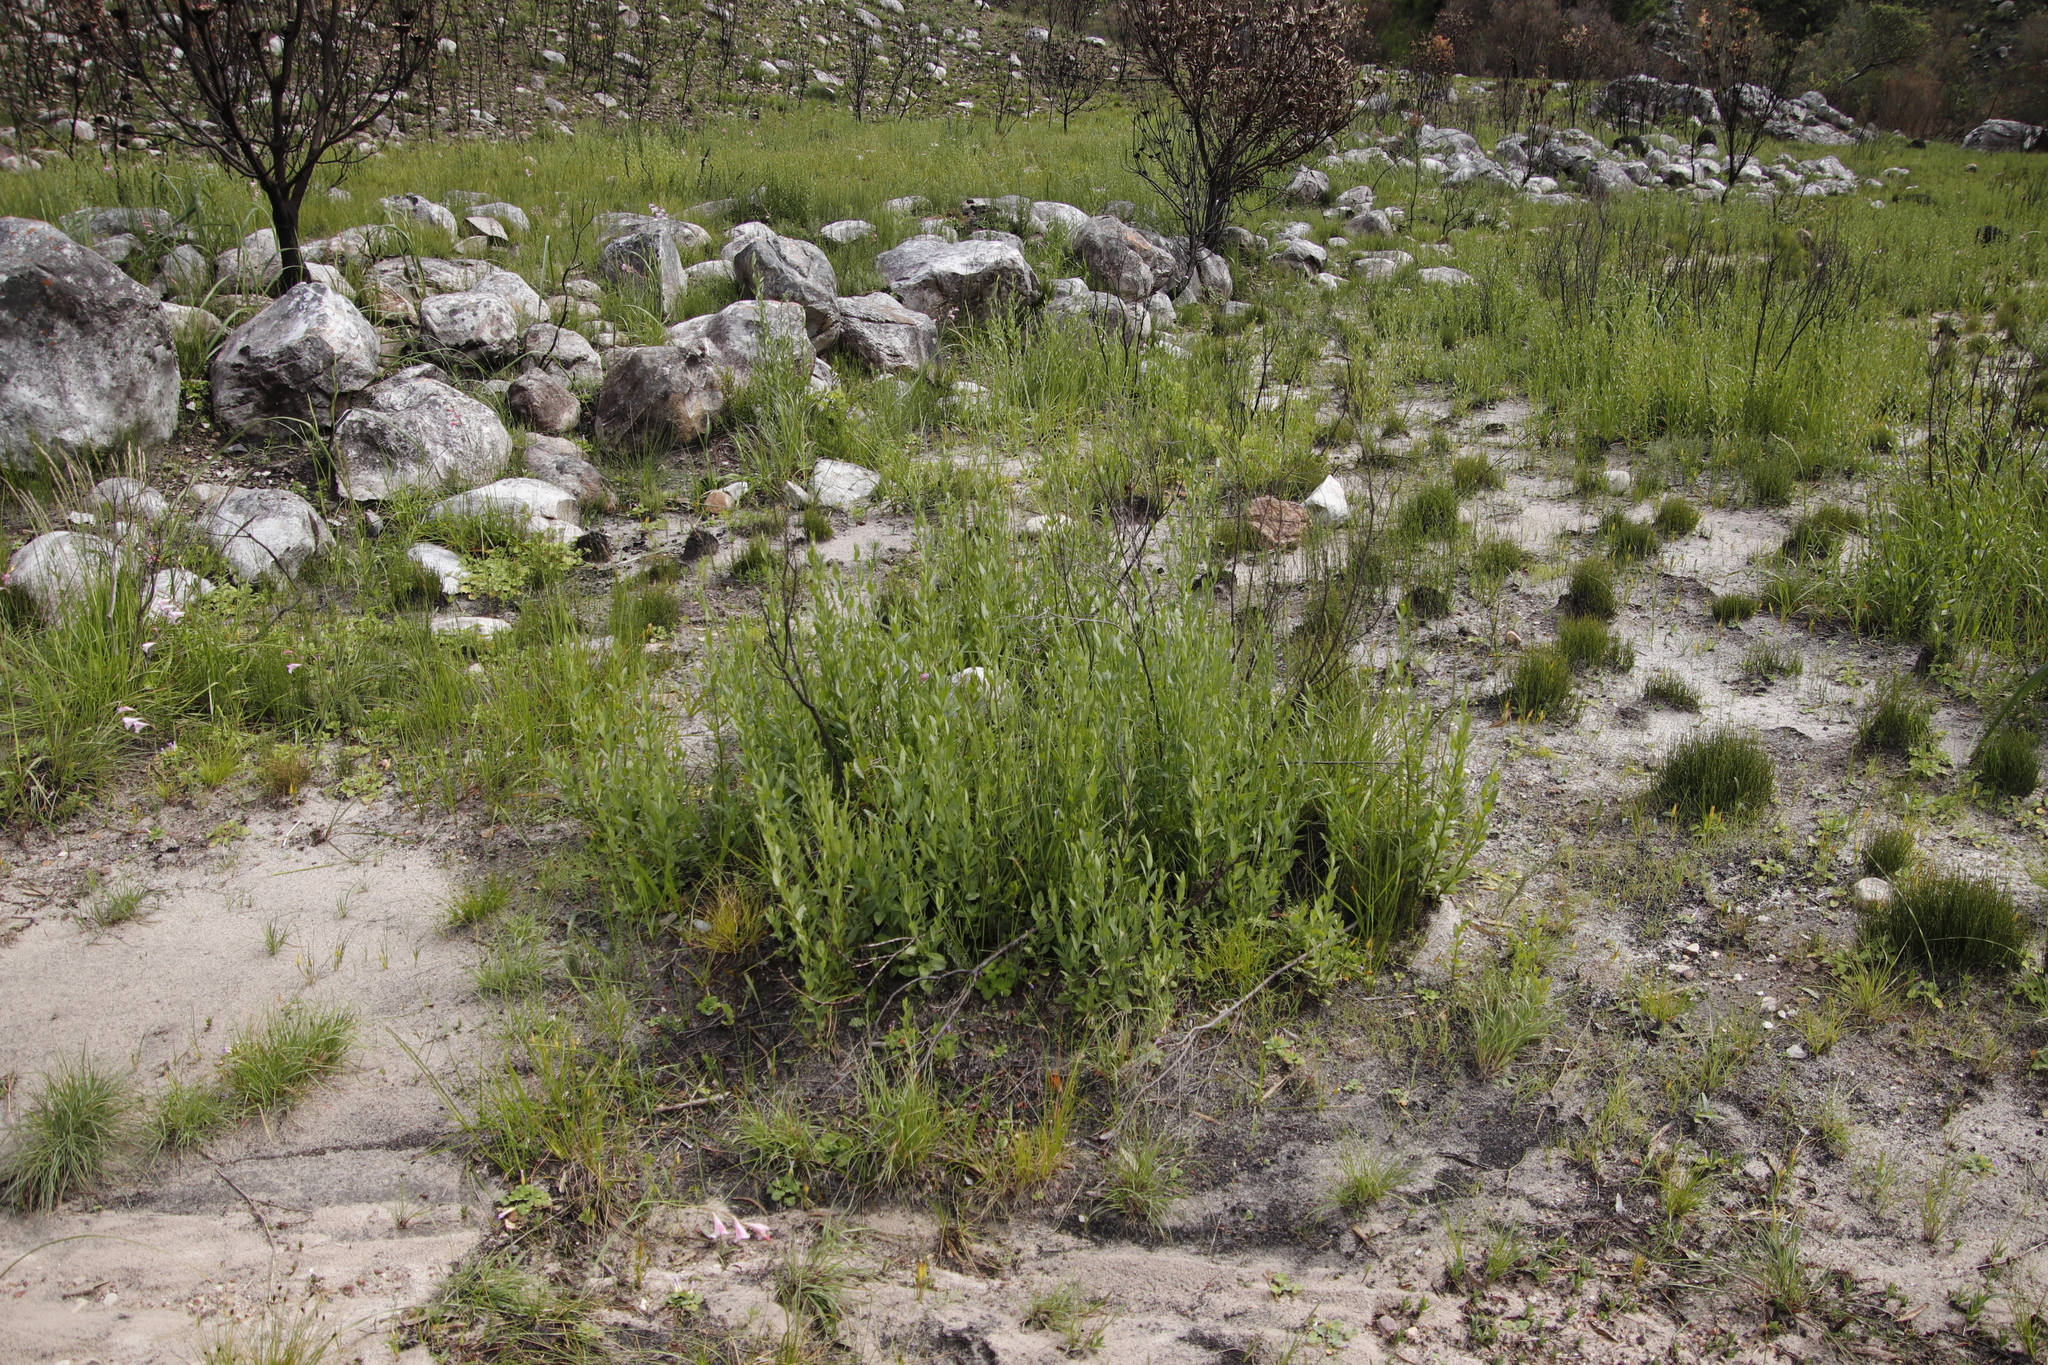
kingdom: Plantae
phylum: Tracheophyta
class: Magnoliopsida
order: Solanales
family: Montiniaceae
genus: Montinia
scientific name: Montinia caryophyllacea
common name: Wild clove-bush
